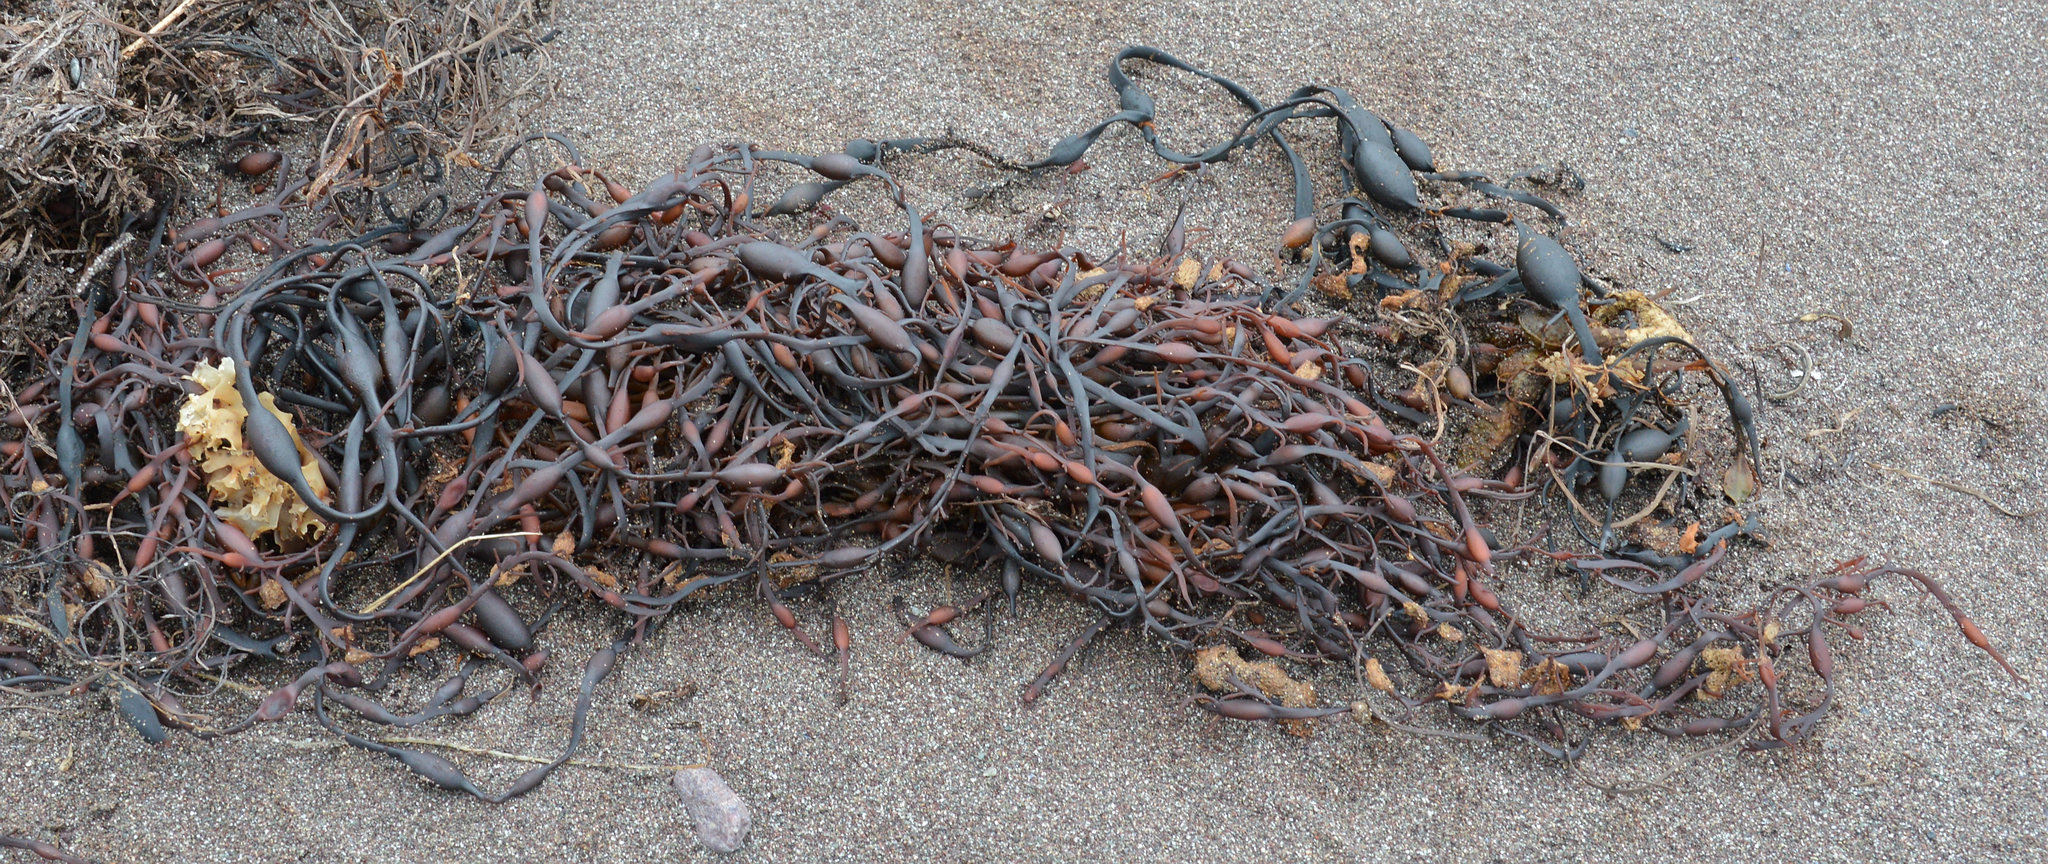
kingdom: Chromista
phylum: Ochrophyta
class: Phaeophyceae
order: Fucales
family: Fucaceae
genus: Ascophyllum
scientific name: Ascophyllum nodosum
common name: Knotted wrack
